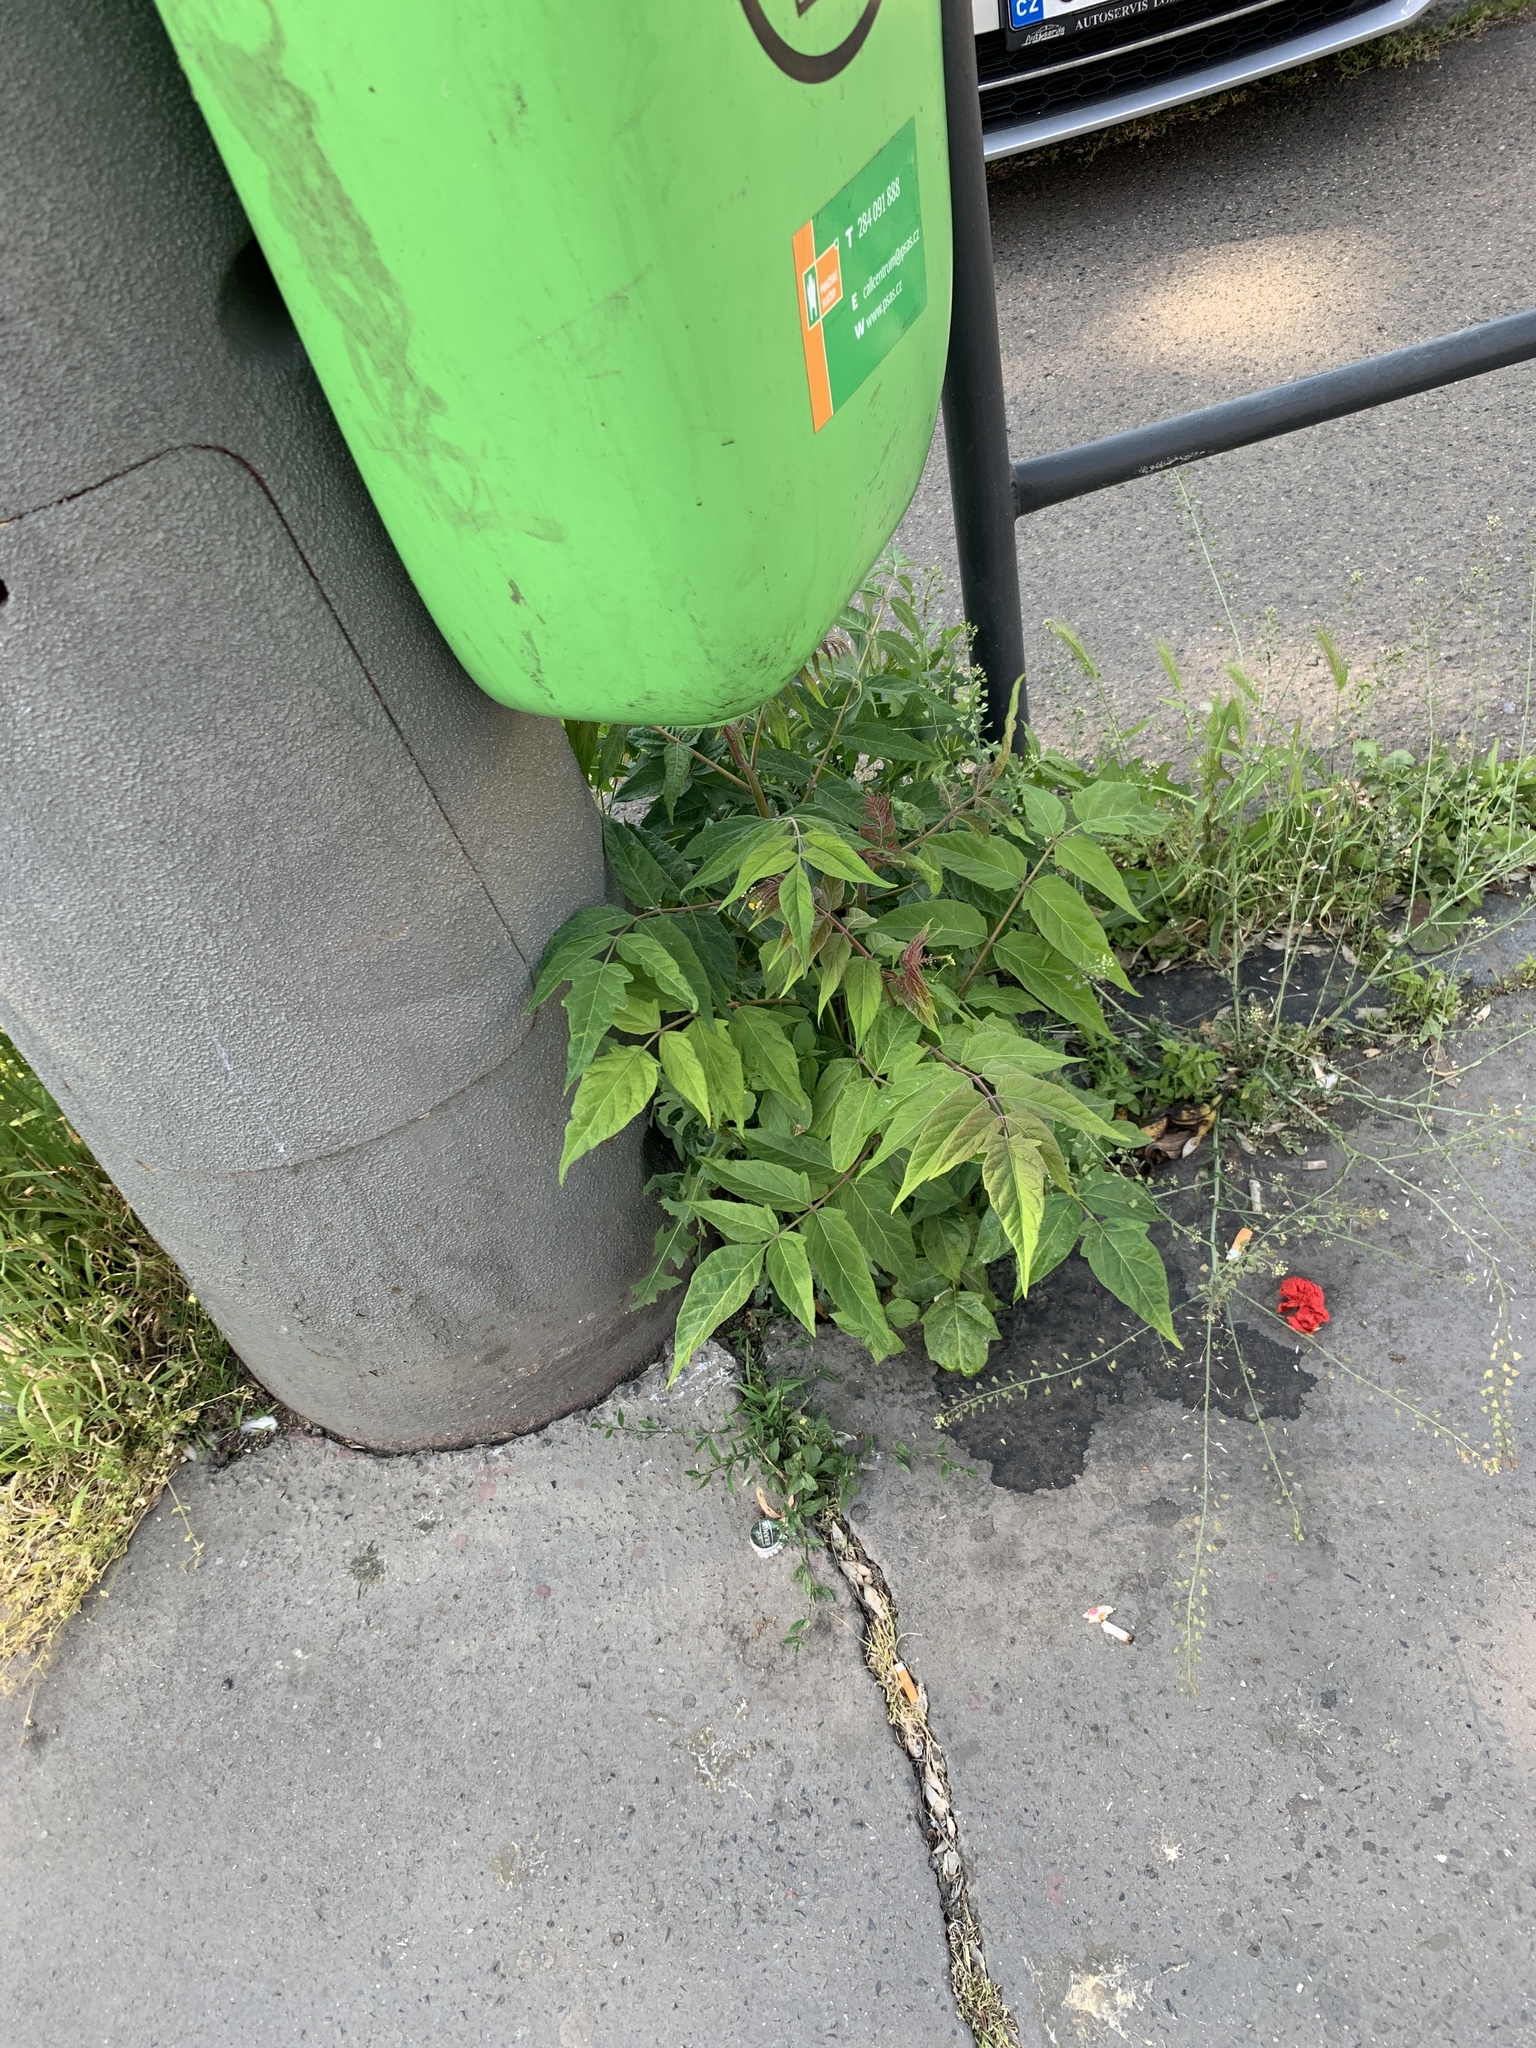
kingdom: Plantae
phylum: Tracheophyta
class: Magnoliopsida
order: Sapindales
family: Simaroubaceae
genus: Ailanthus
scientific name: Ailanthus altissima
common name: Tree-of-heaven
